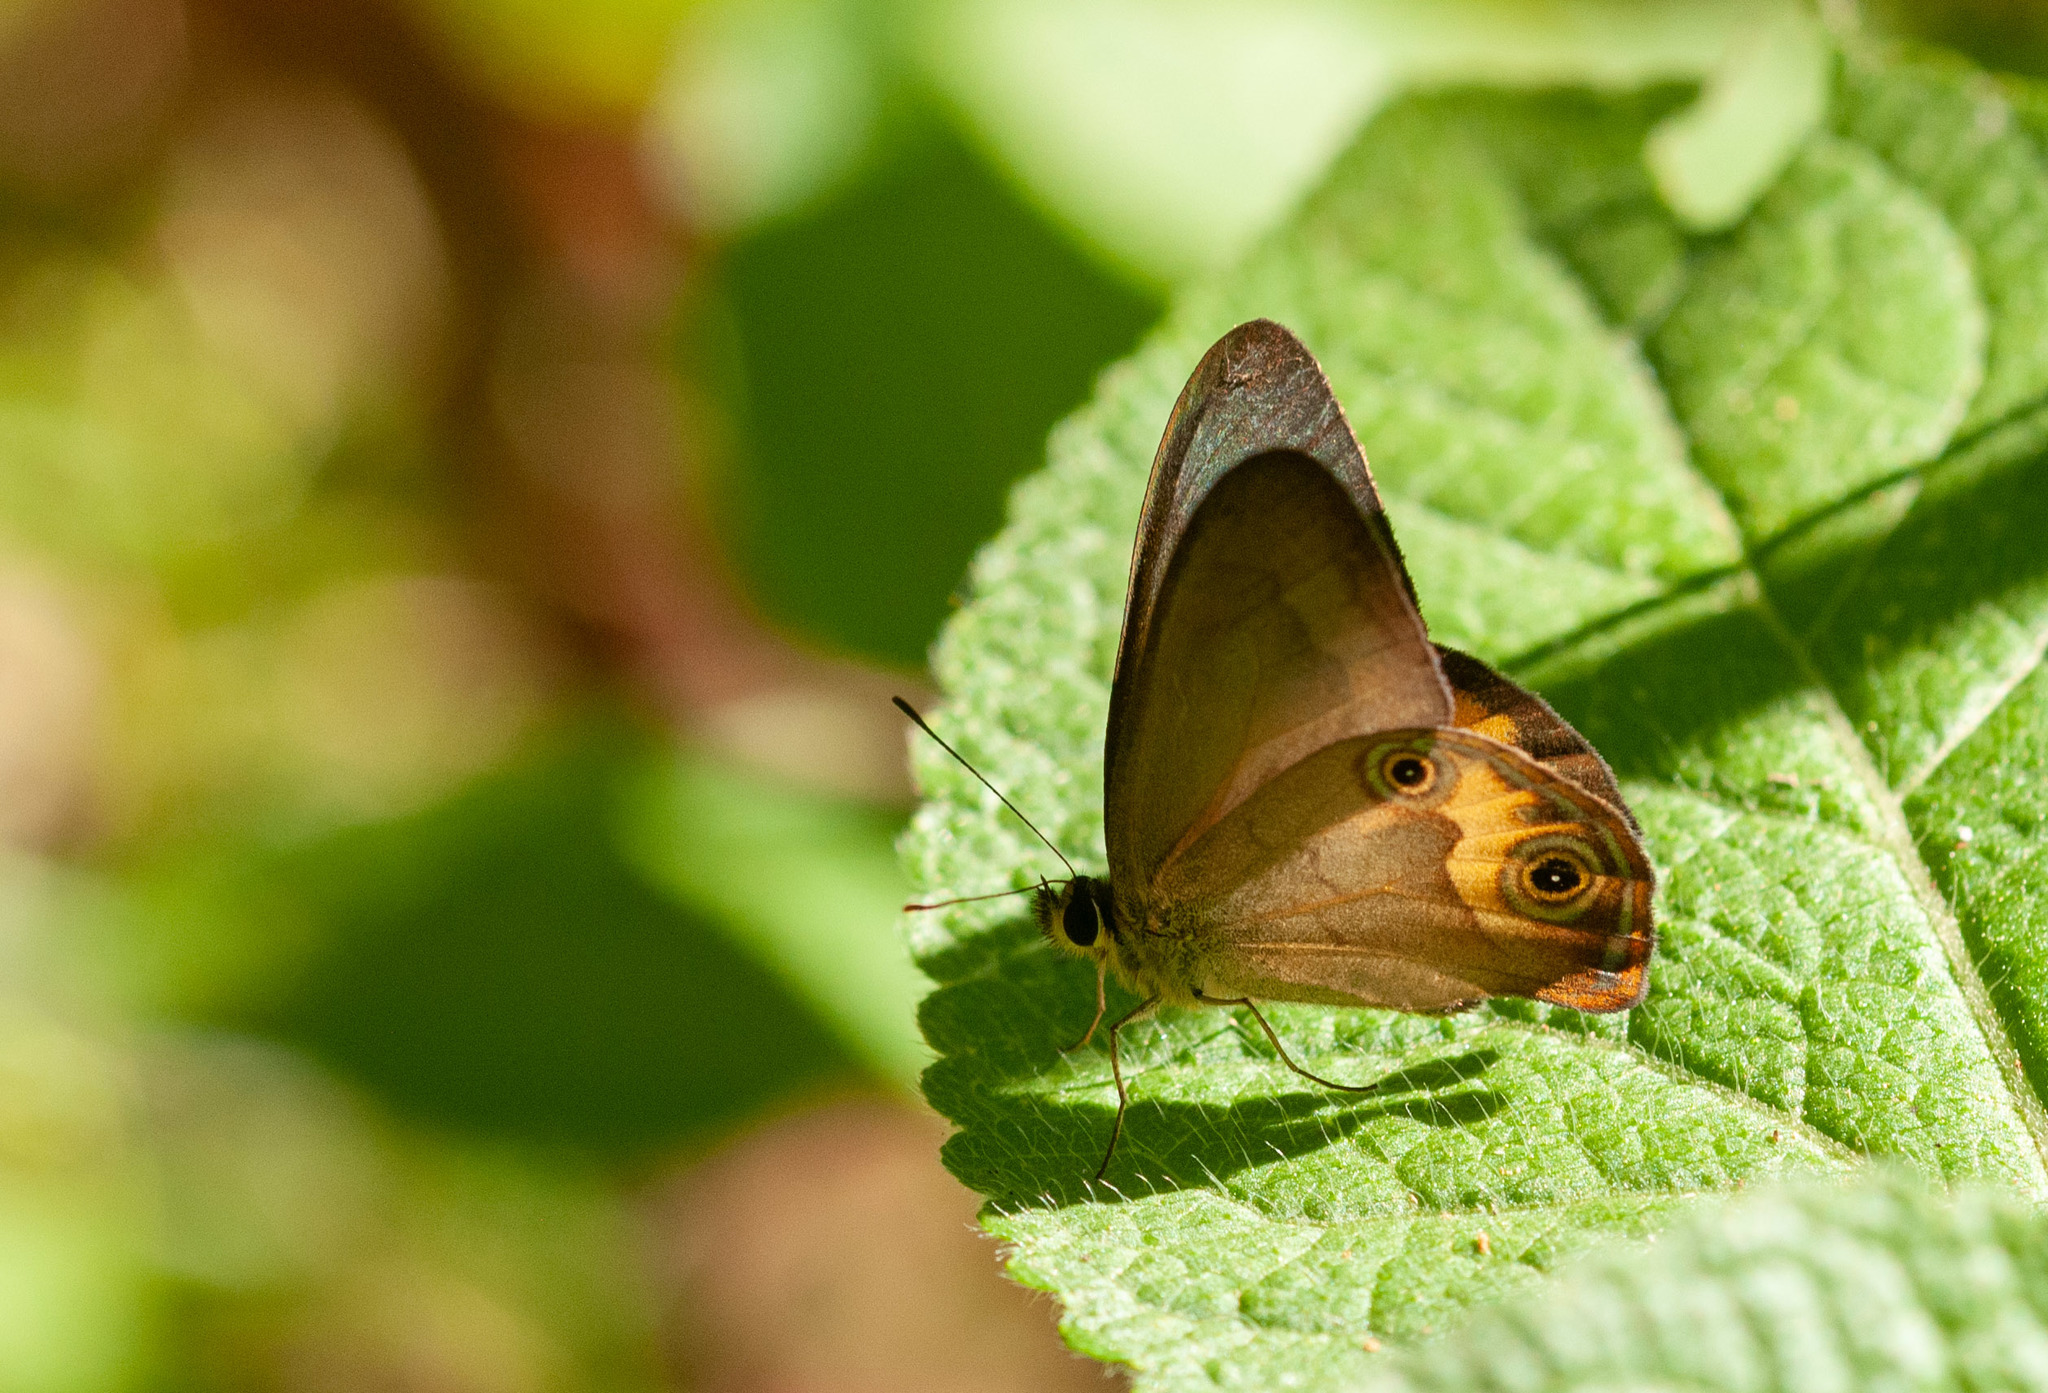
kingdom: Animalia
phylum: Arthropoda
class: Insecta
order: Lepidoptera
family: Nymphalidae
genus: Hypocysta
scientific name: Hypocysta metirius
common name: Brown ringlet
